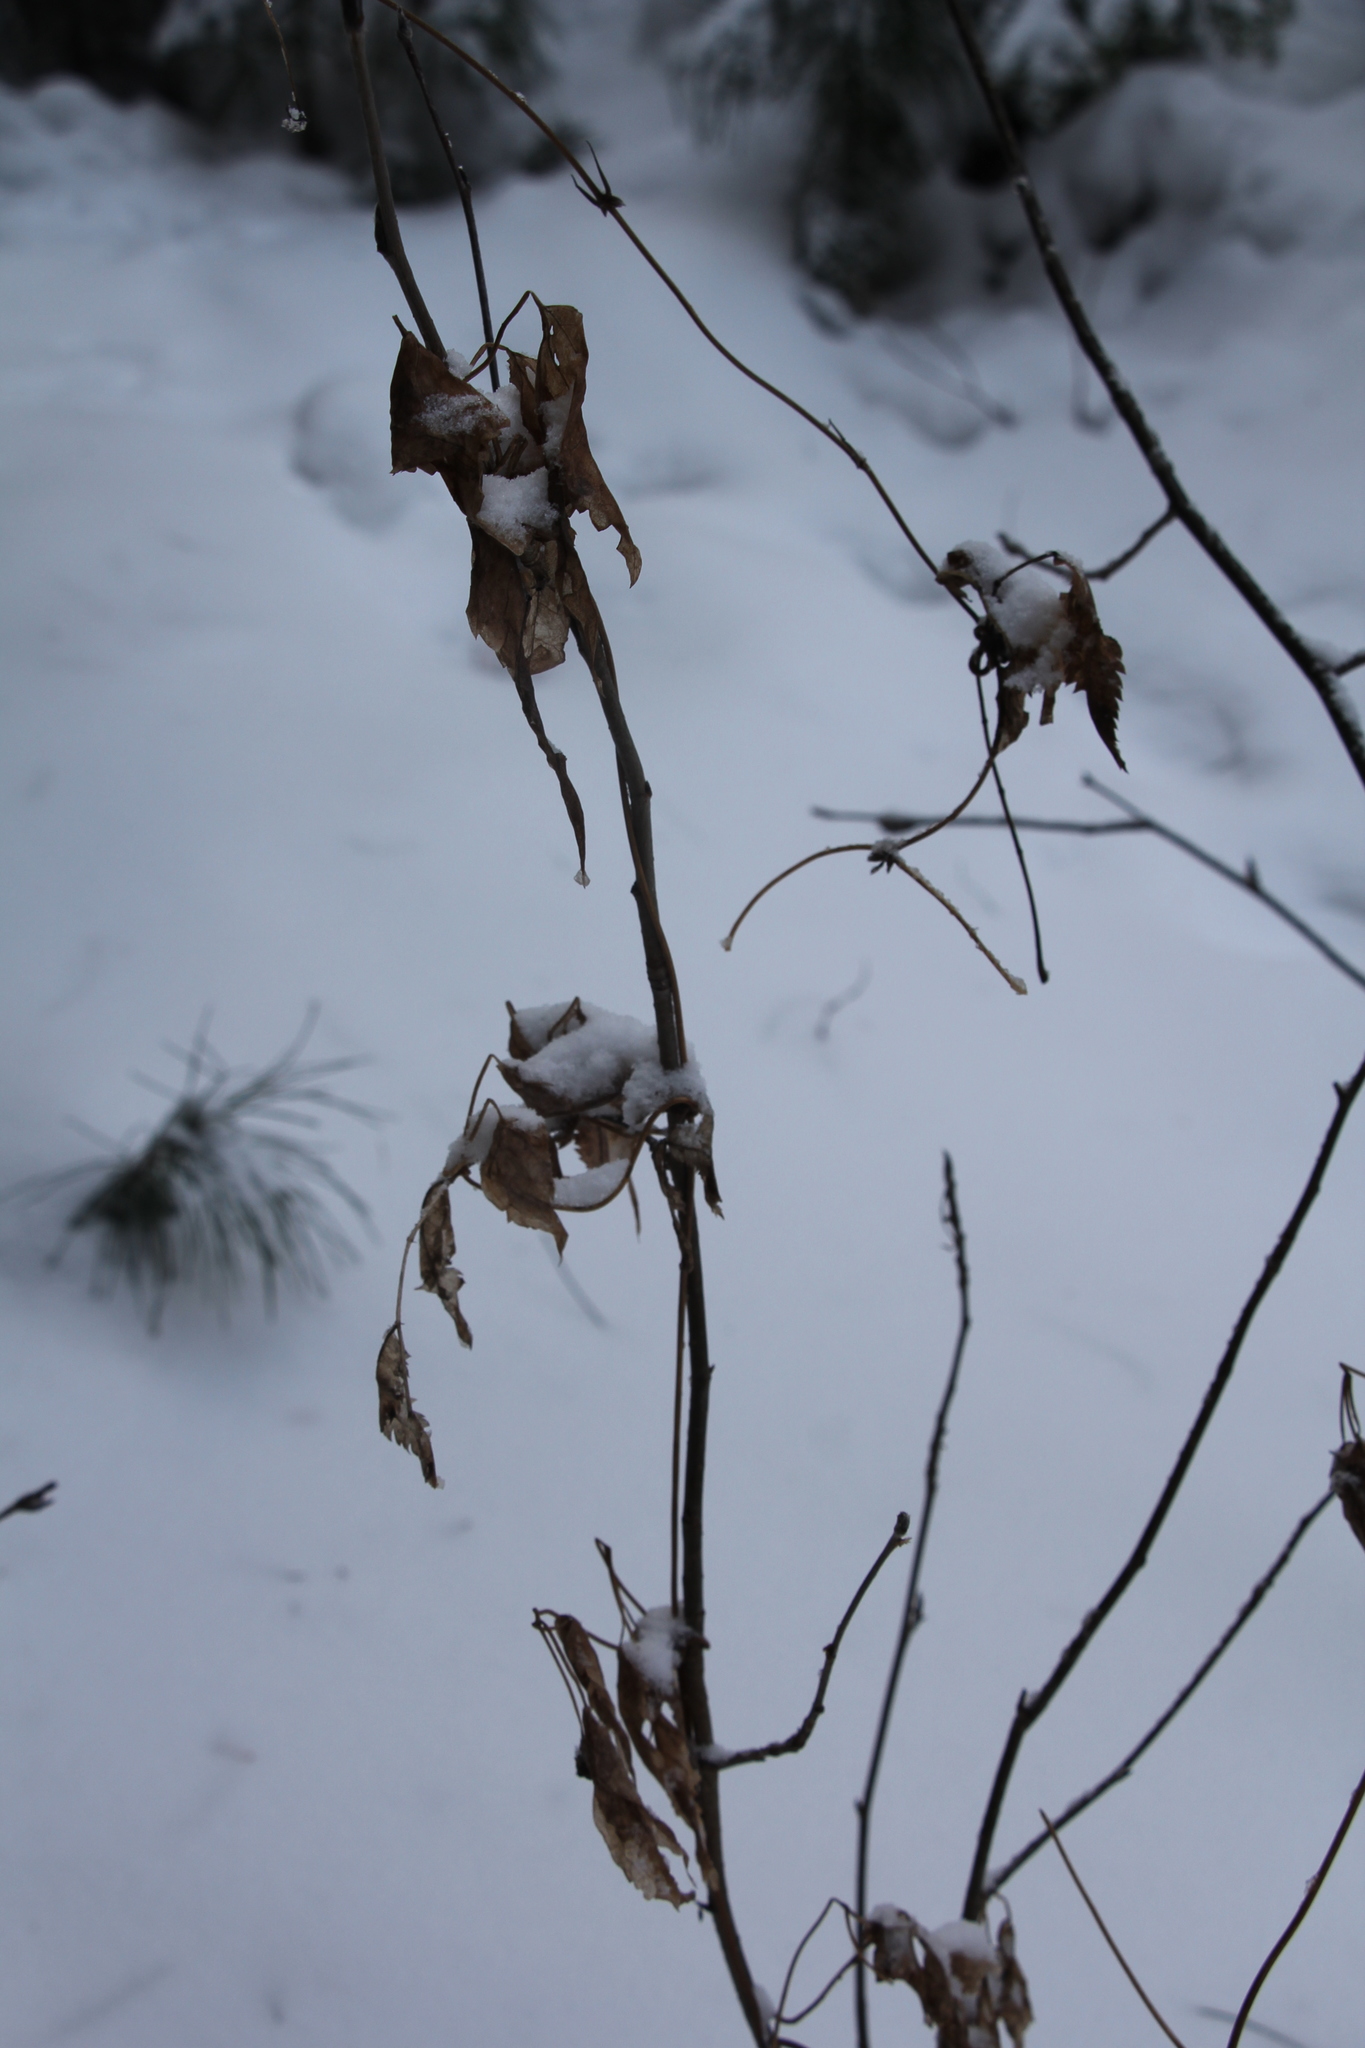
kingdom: Plantae
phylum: Tracheophyta
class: Magnoliopsida
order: Ranunculales
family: Ranunculaceae
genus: Clematis
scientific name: Clematis sibirica
